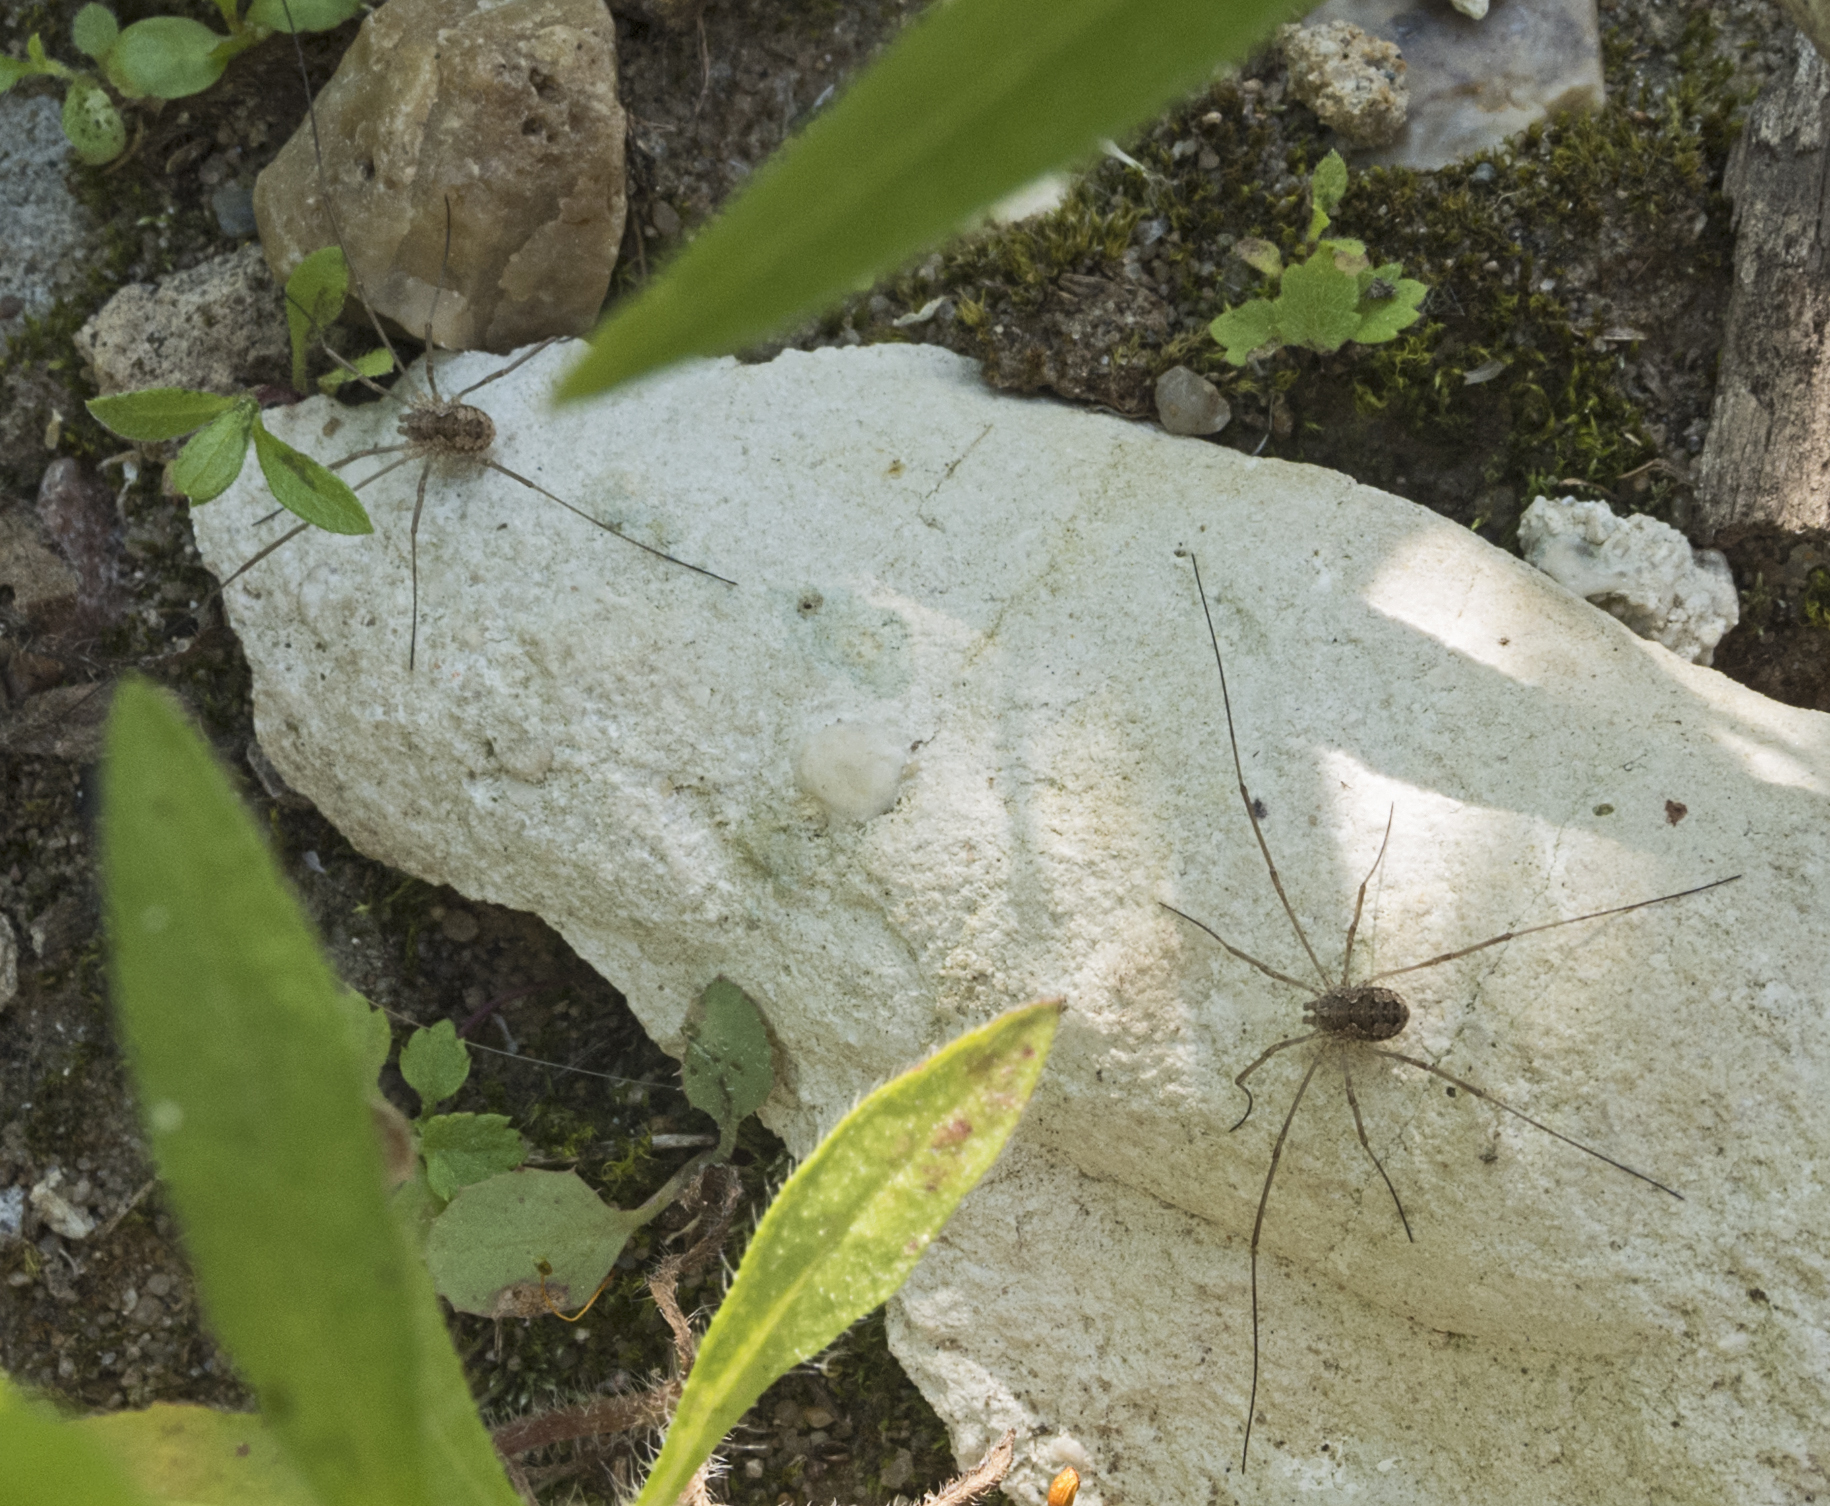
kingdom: Animalia
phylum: Arthropoda
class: Arachnida
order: Opiliones
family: Phalangiidae
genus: Phalangium
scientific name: Phalangium opilio
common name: Daddy longleg
